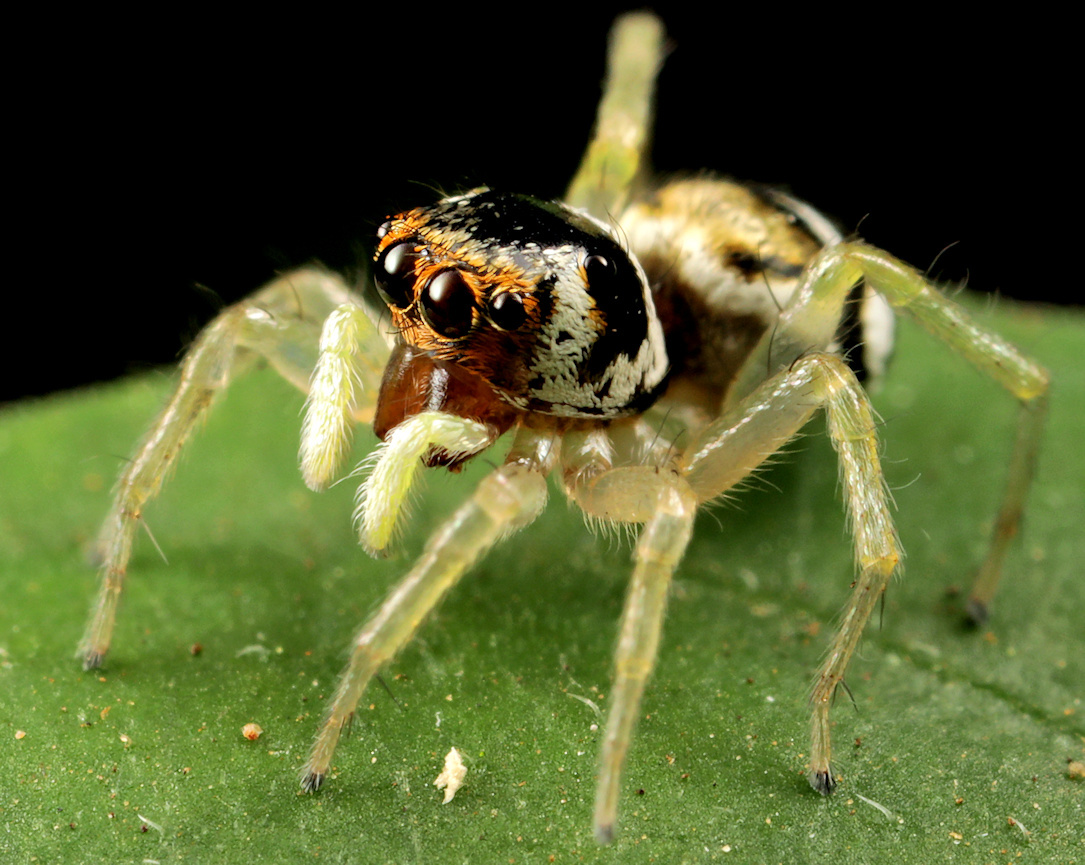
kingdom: Animalia
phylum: Arthropoda
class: Arachnida
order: Araneae
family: Salticidae
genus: Phintella
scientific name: Phintella aequipes
